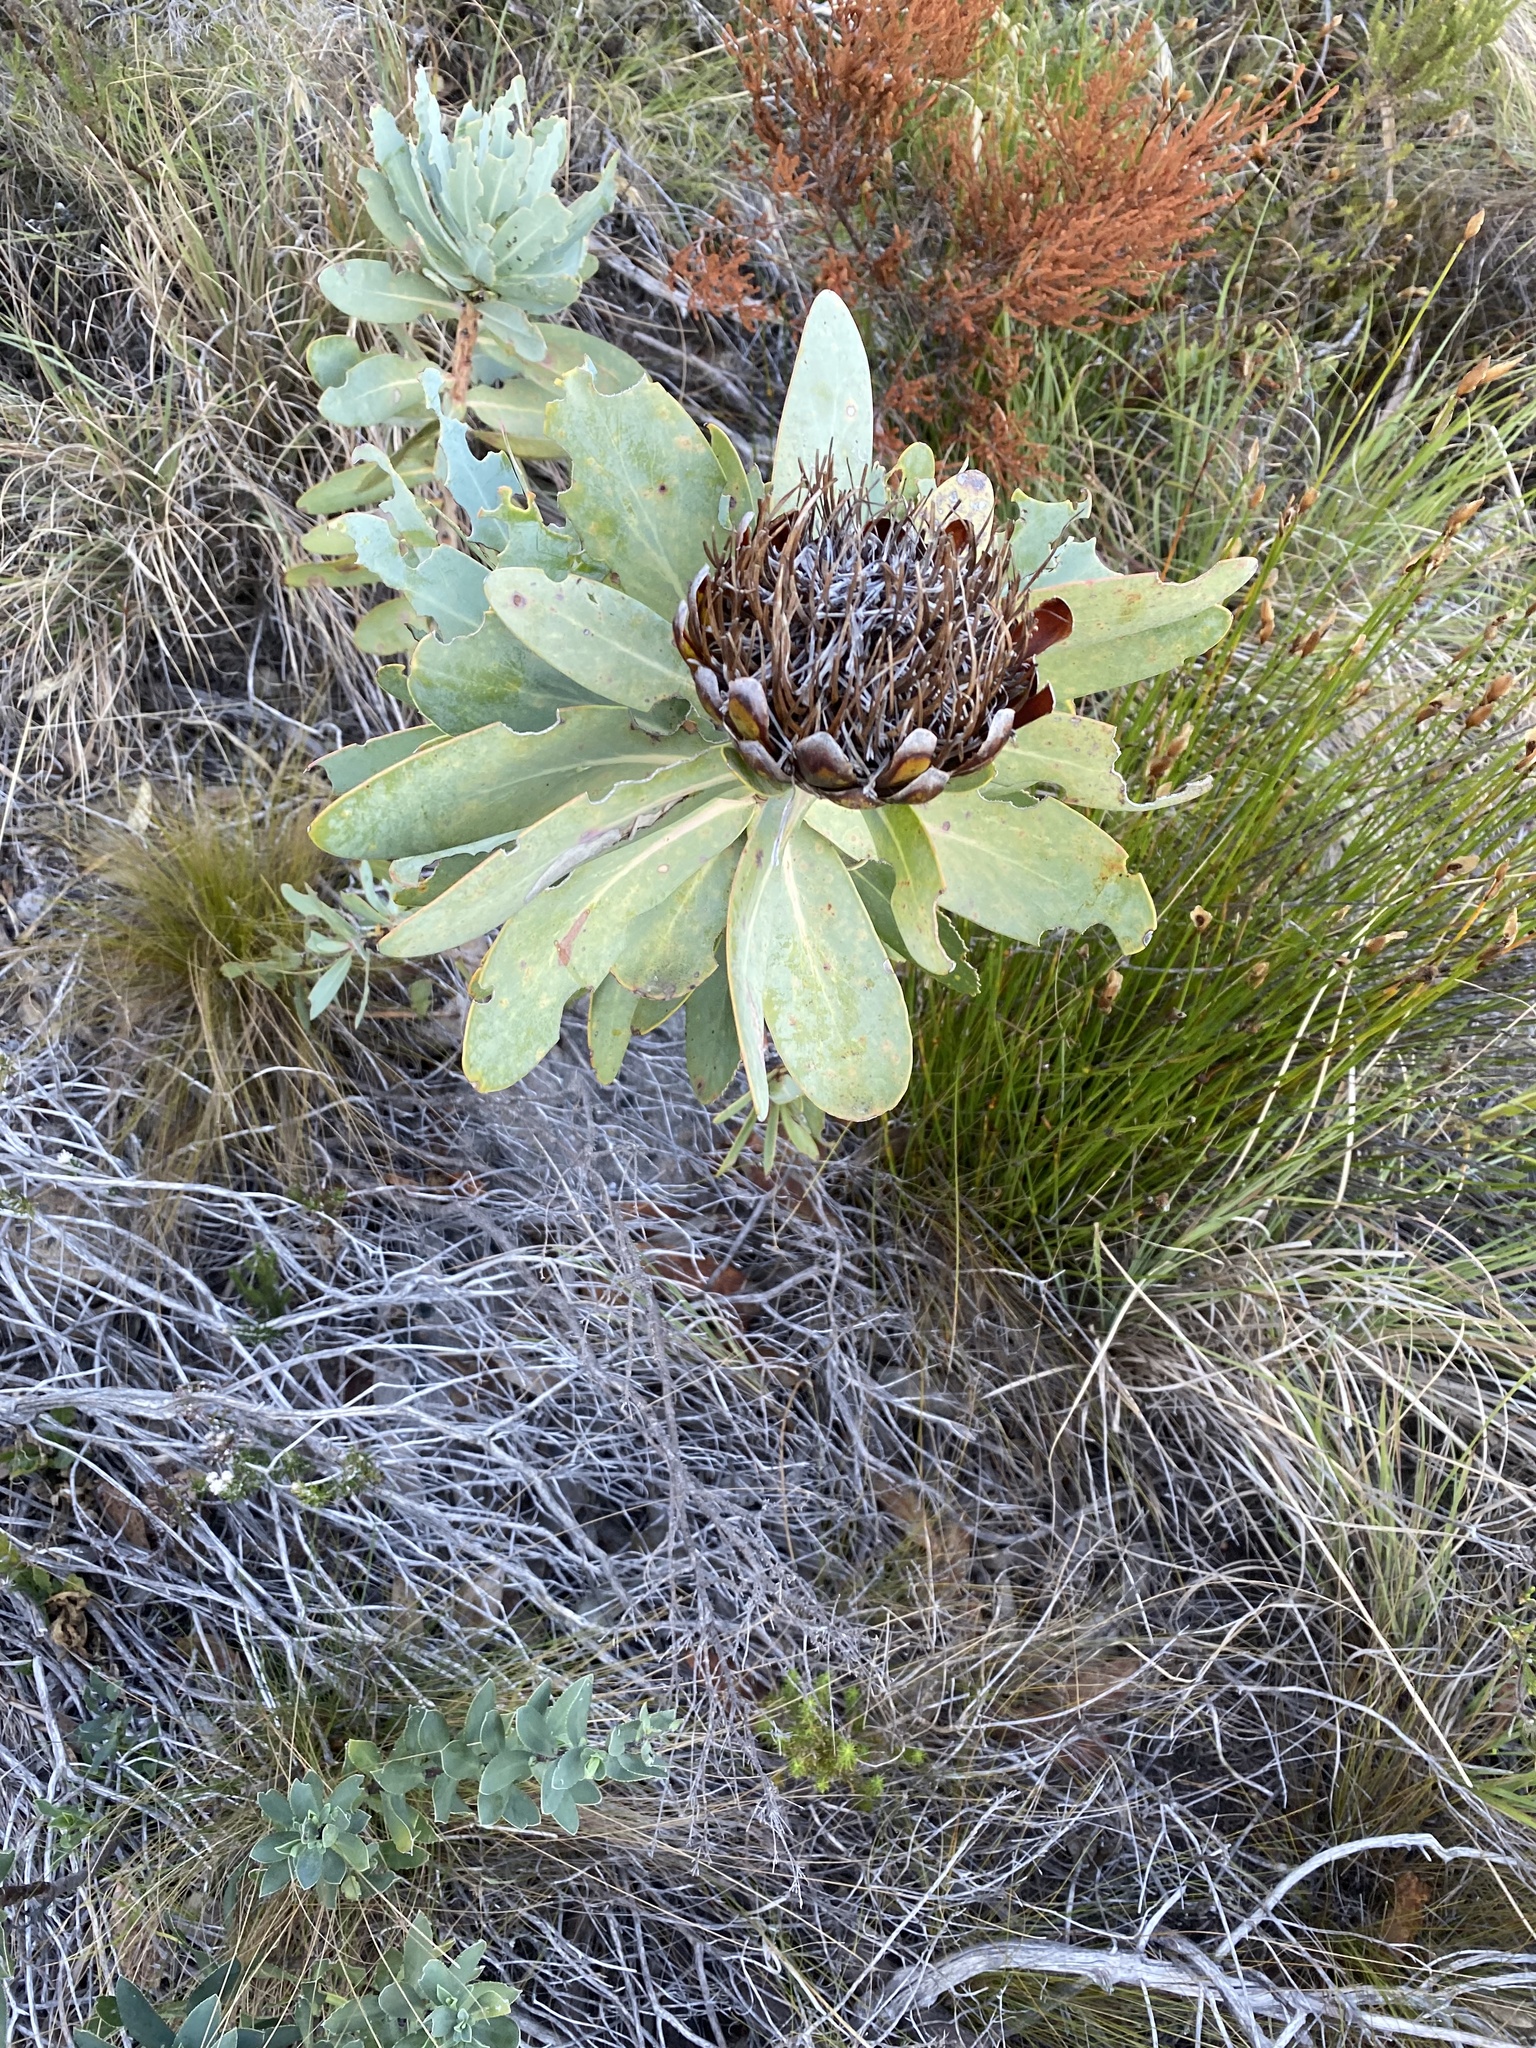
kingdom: Plantae
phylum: Tracheophyta
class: Magnoliopsida
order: Proteales
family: Proteaceae
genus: Protea
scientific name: Protea nitida
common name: Tree protea
